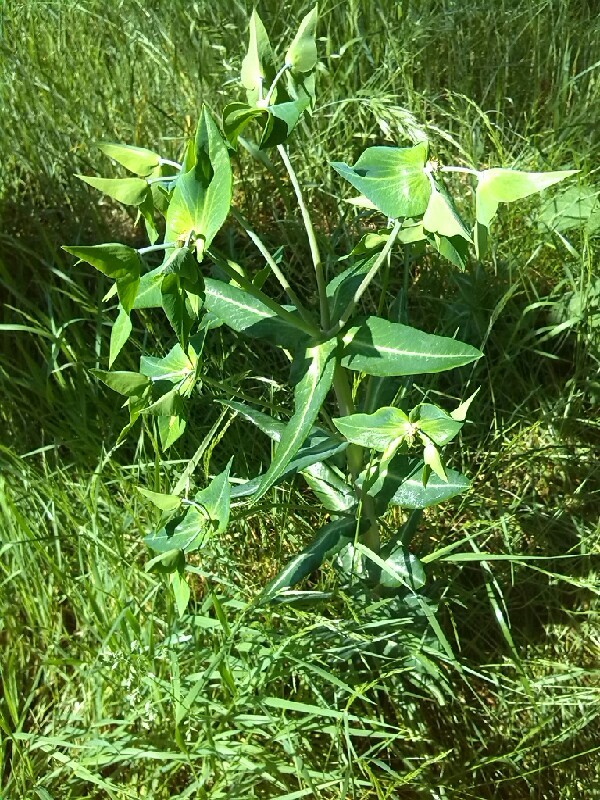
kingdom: Plantae
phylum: Tracheophyta
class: Magnoliopsida
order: Malpighiales
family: Euphorbiaceae
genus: Euphorbia
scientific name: Euphorbia lathyris
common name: Caper spurge
